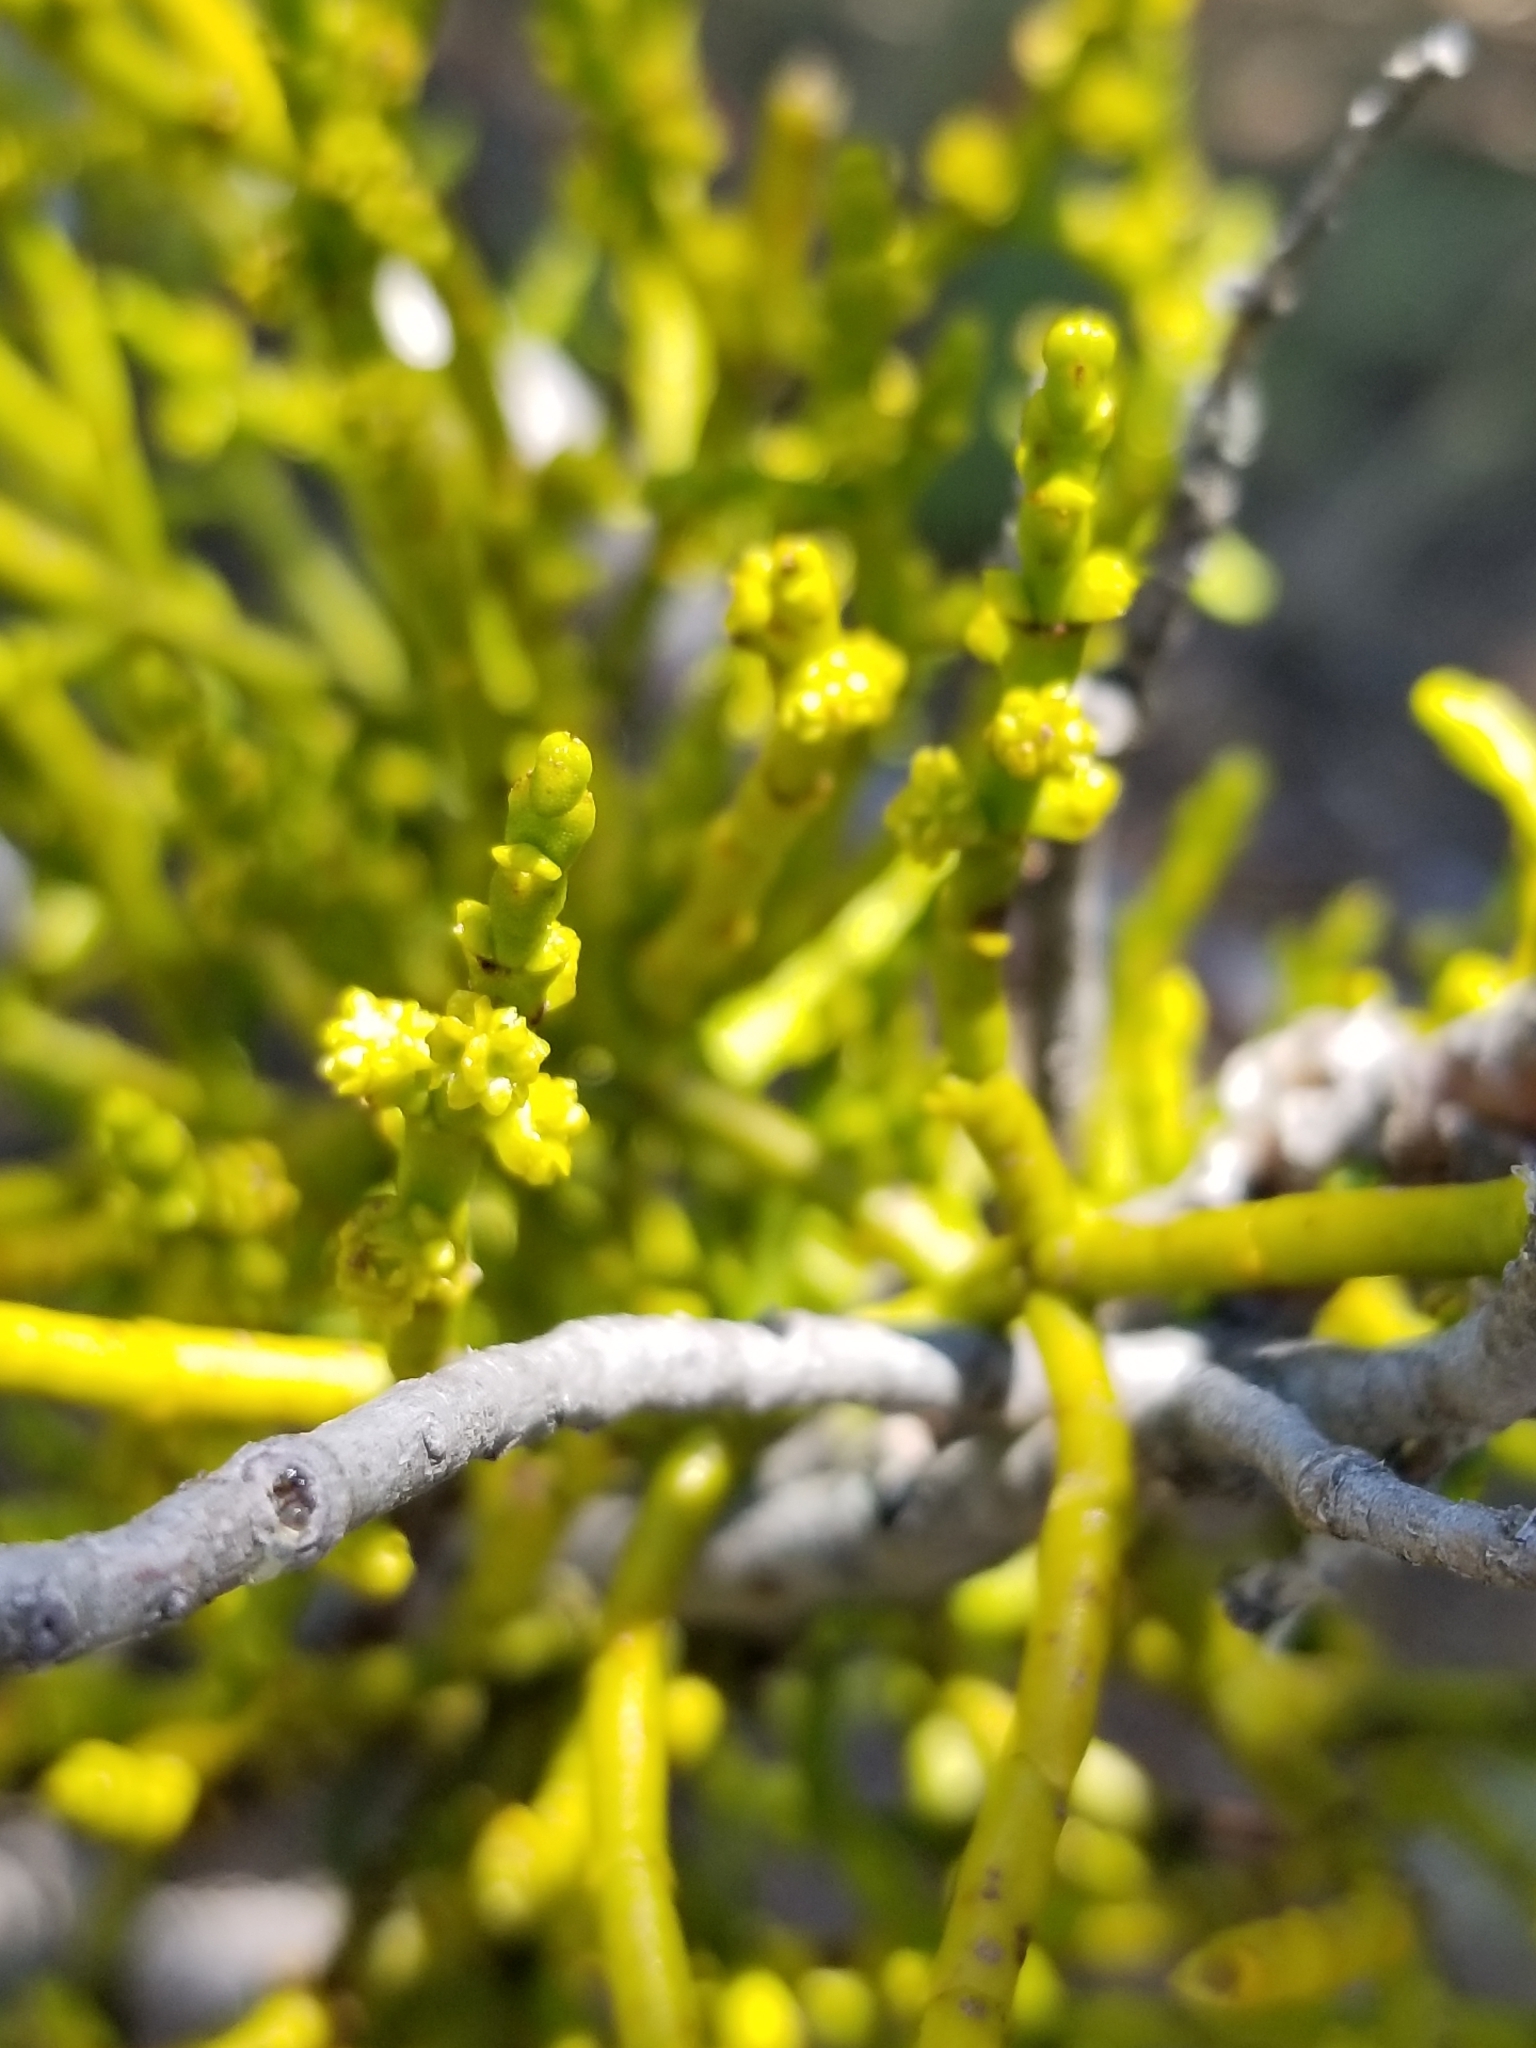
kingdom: Plantae
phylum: Tracheophyta
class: Magnoliopsida
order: Santalales
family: Viscaceae
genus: Phoradendron
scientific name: Phoradendron juniperinum
